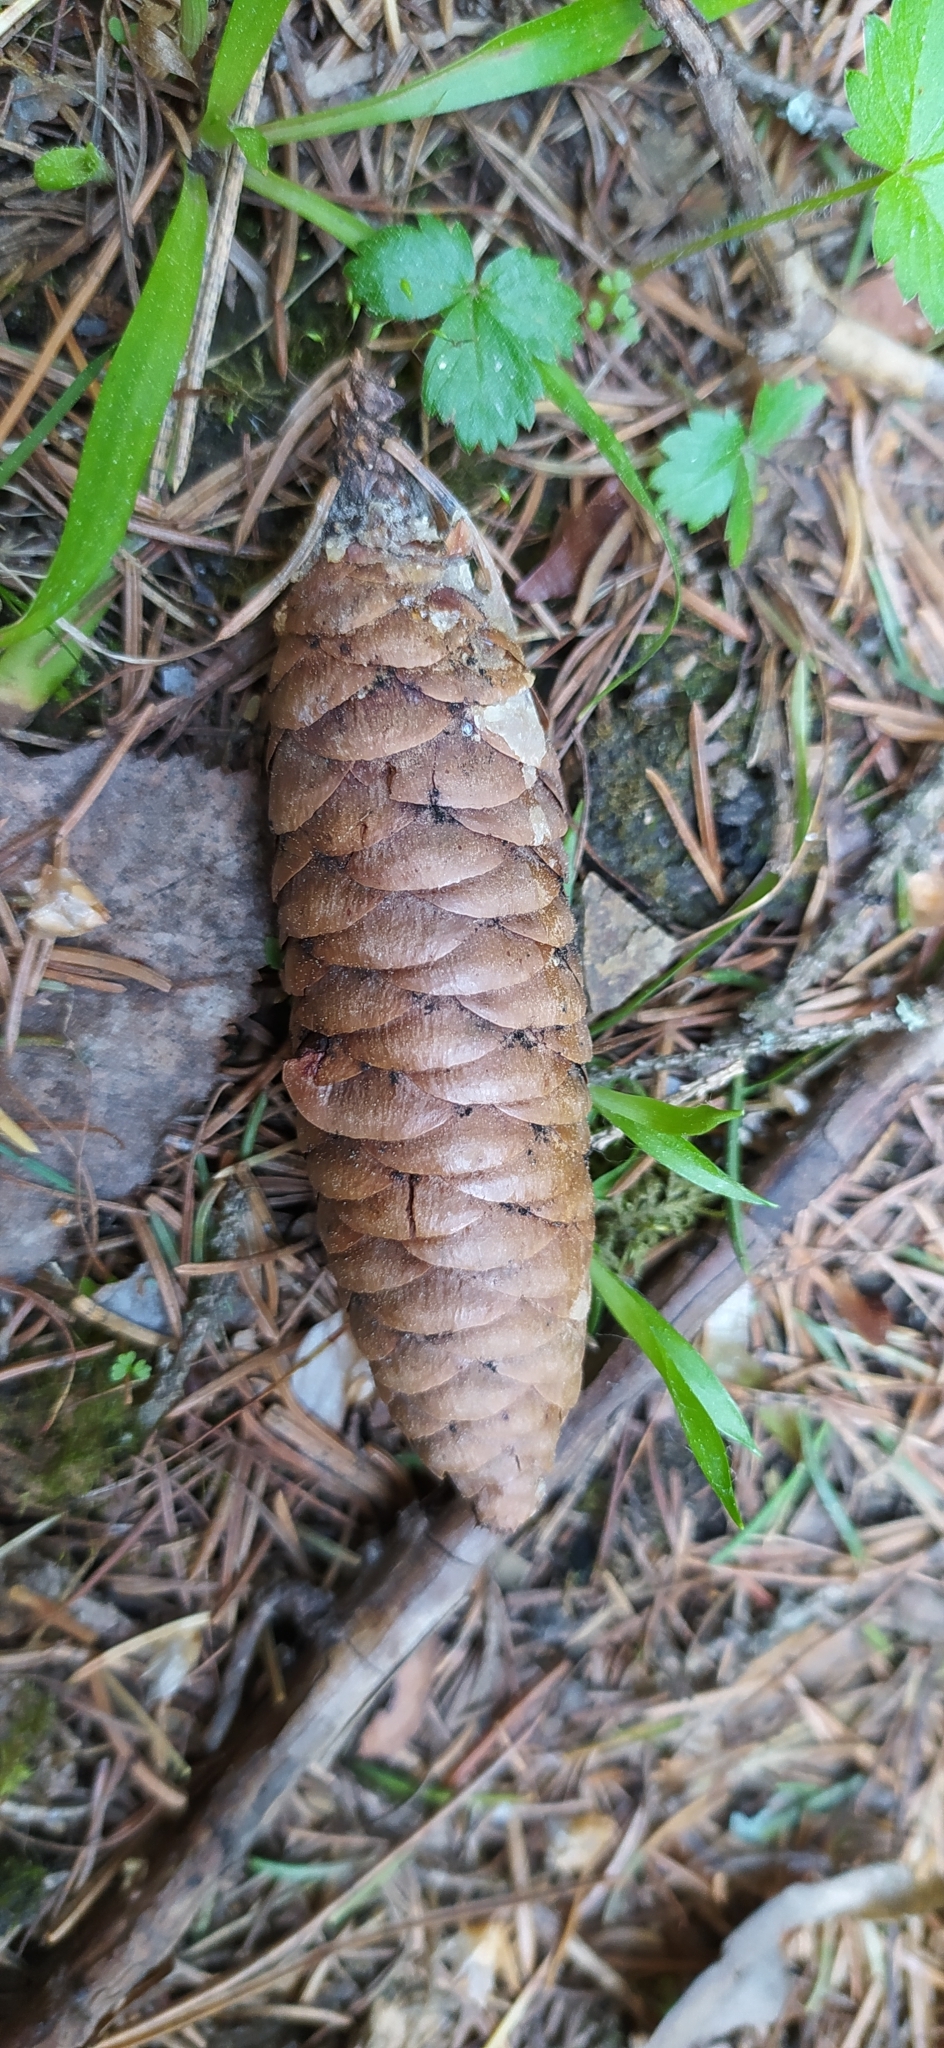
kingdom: Plantae
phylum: Tracheophyta
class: Pinopsida
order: Pinales
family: Pinaceae
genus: Picea
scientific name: Picea obovata
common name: Siberian spruce
